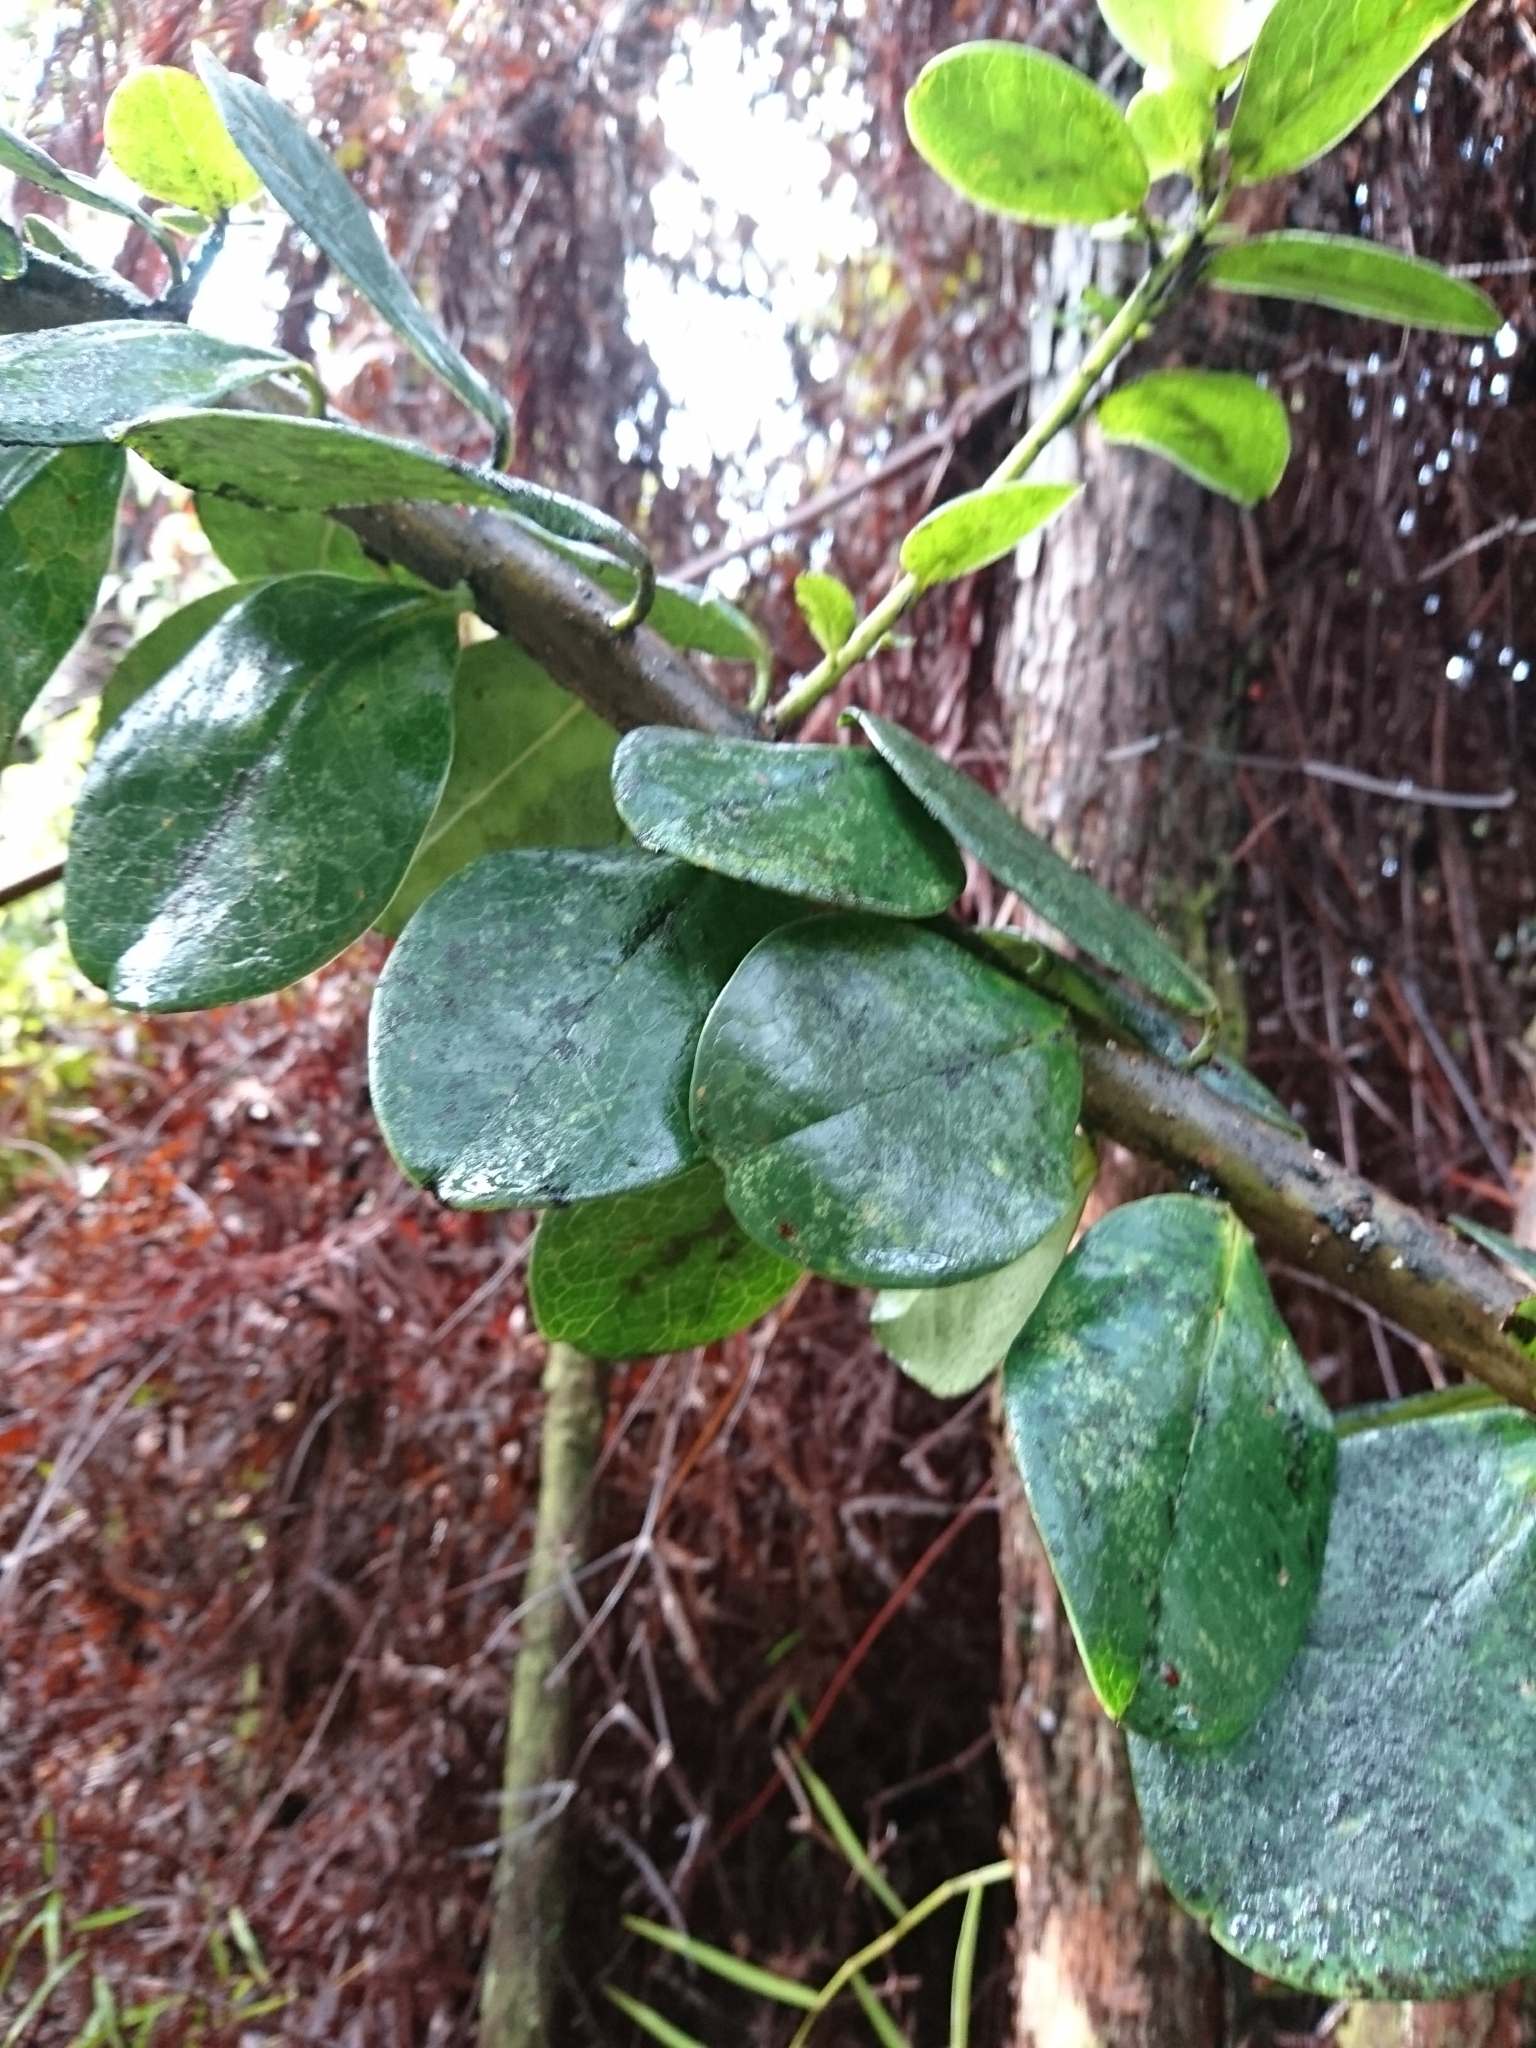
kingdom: Plantae
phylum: Tracheophyta
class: Magnoliopsida
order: Aquifoliales
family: Aquifoliaceae
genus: Ilex
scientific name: Ilex anomala
